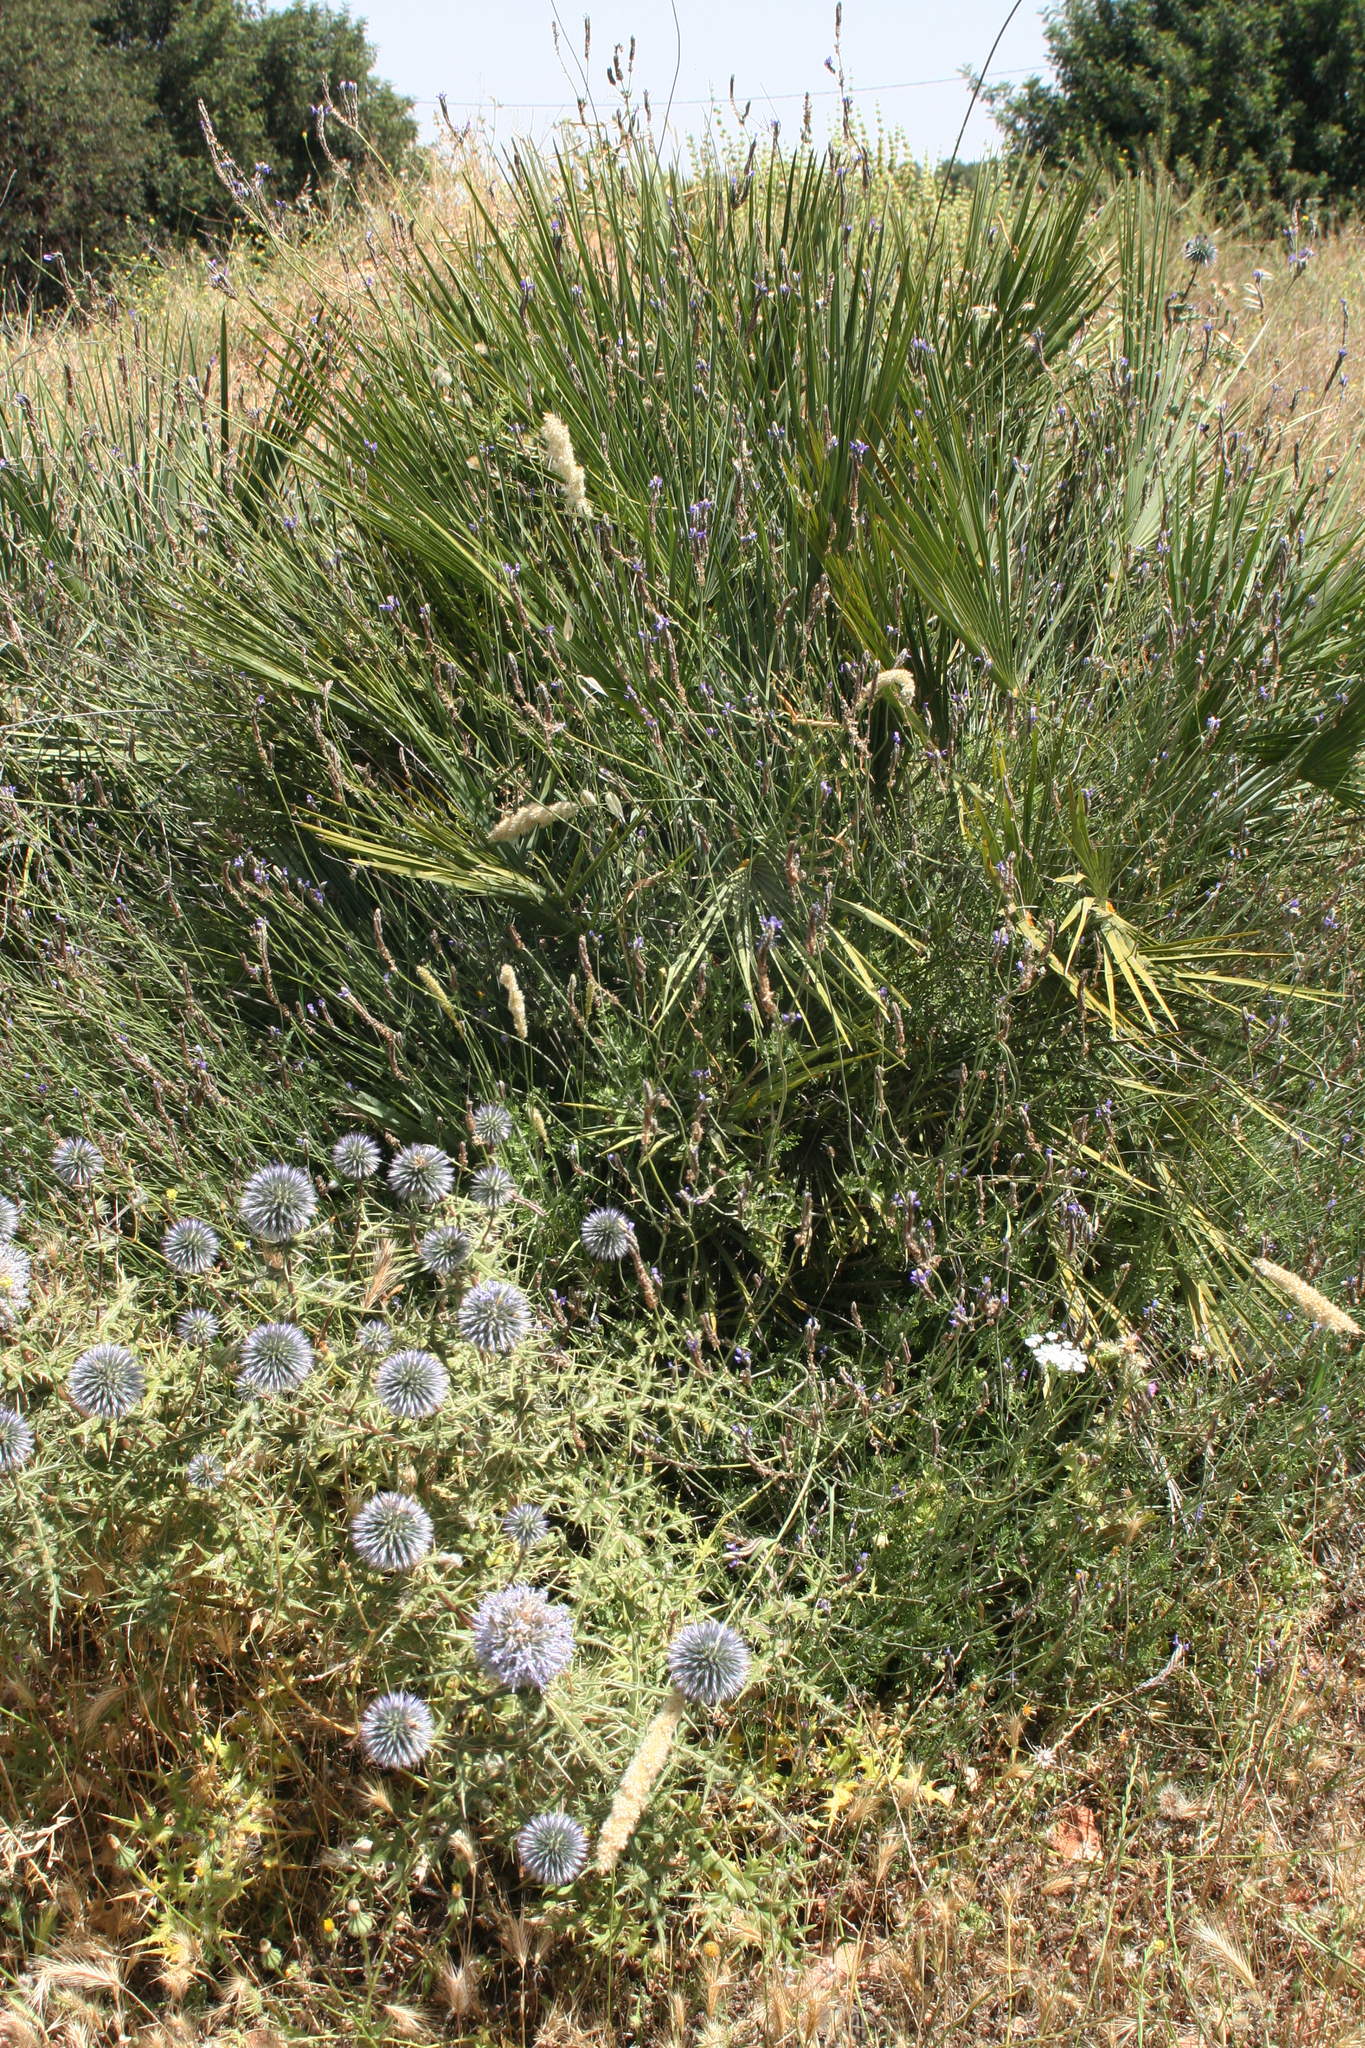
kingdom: Plantae
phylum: Tracheophyta
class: Liliopsida
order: Arecales
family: Arecaceae
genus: Chamaerops
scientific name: Chamaerops humilis
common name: Dwarf fan palm
